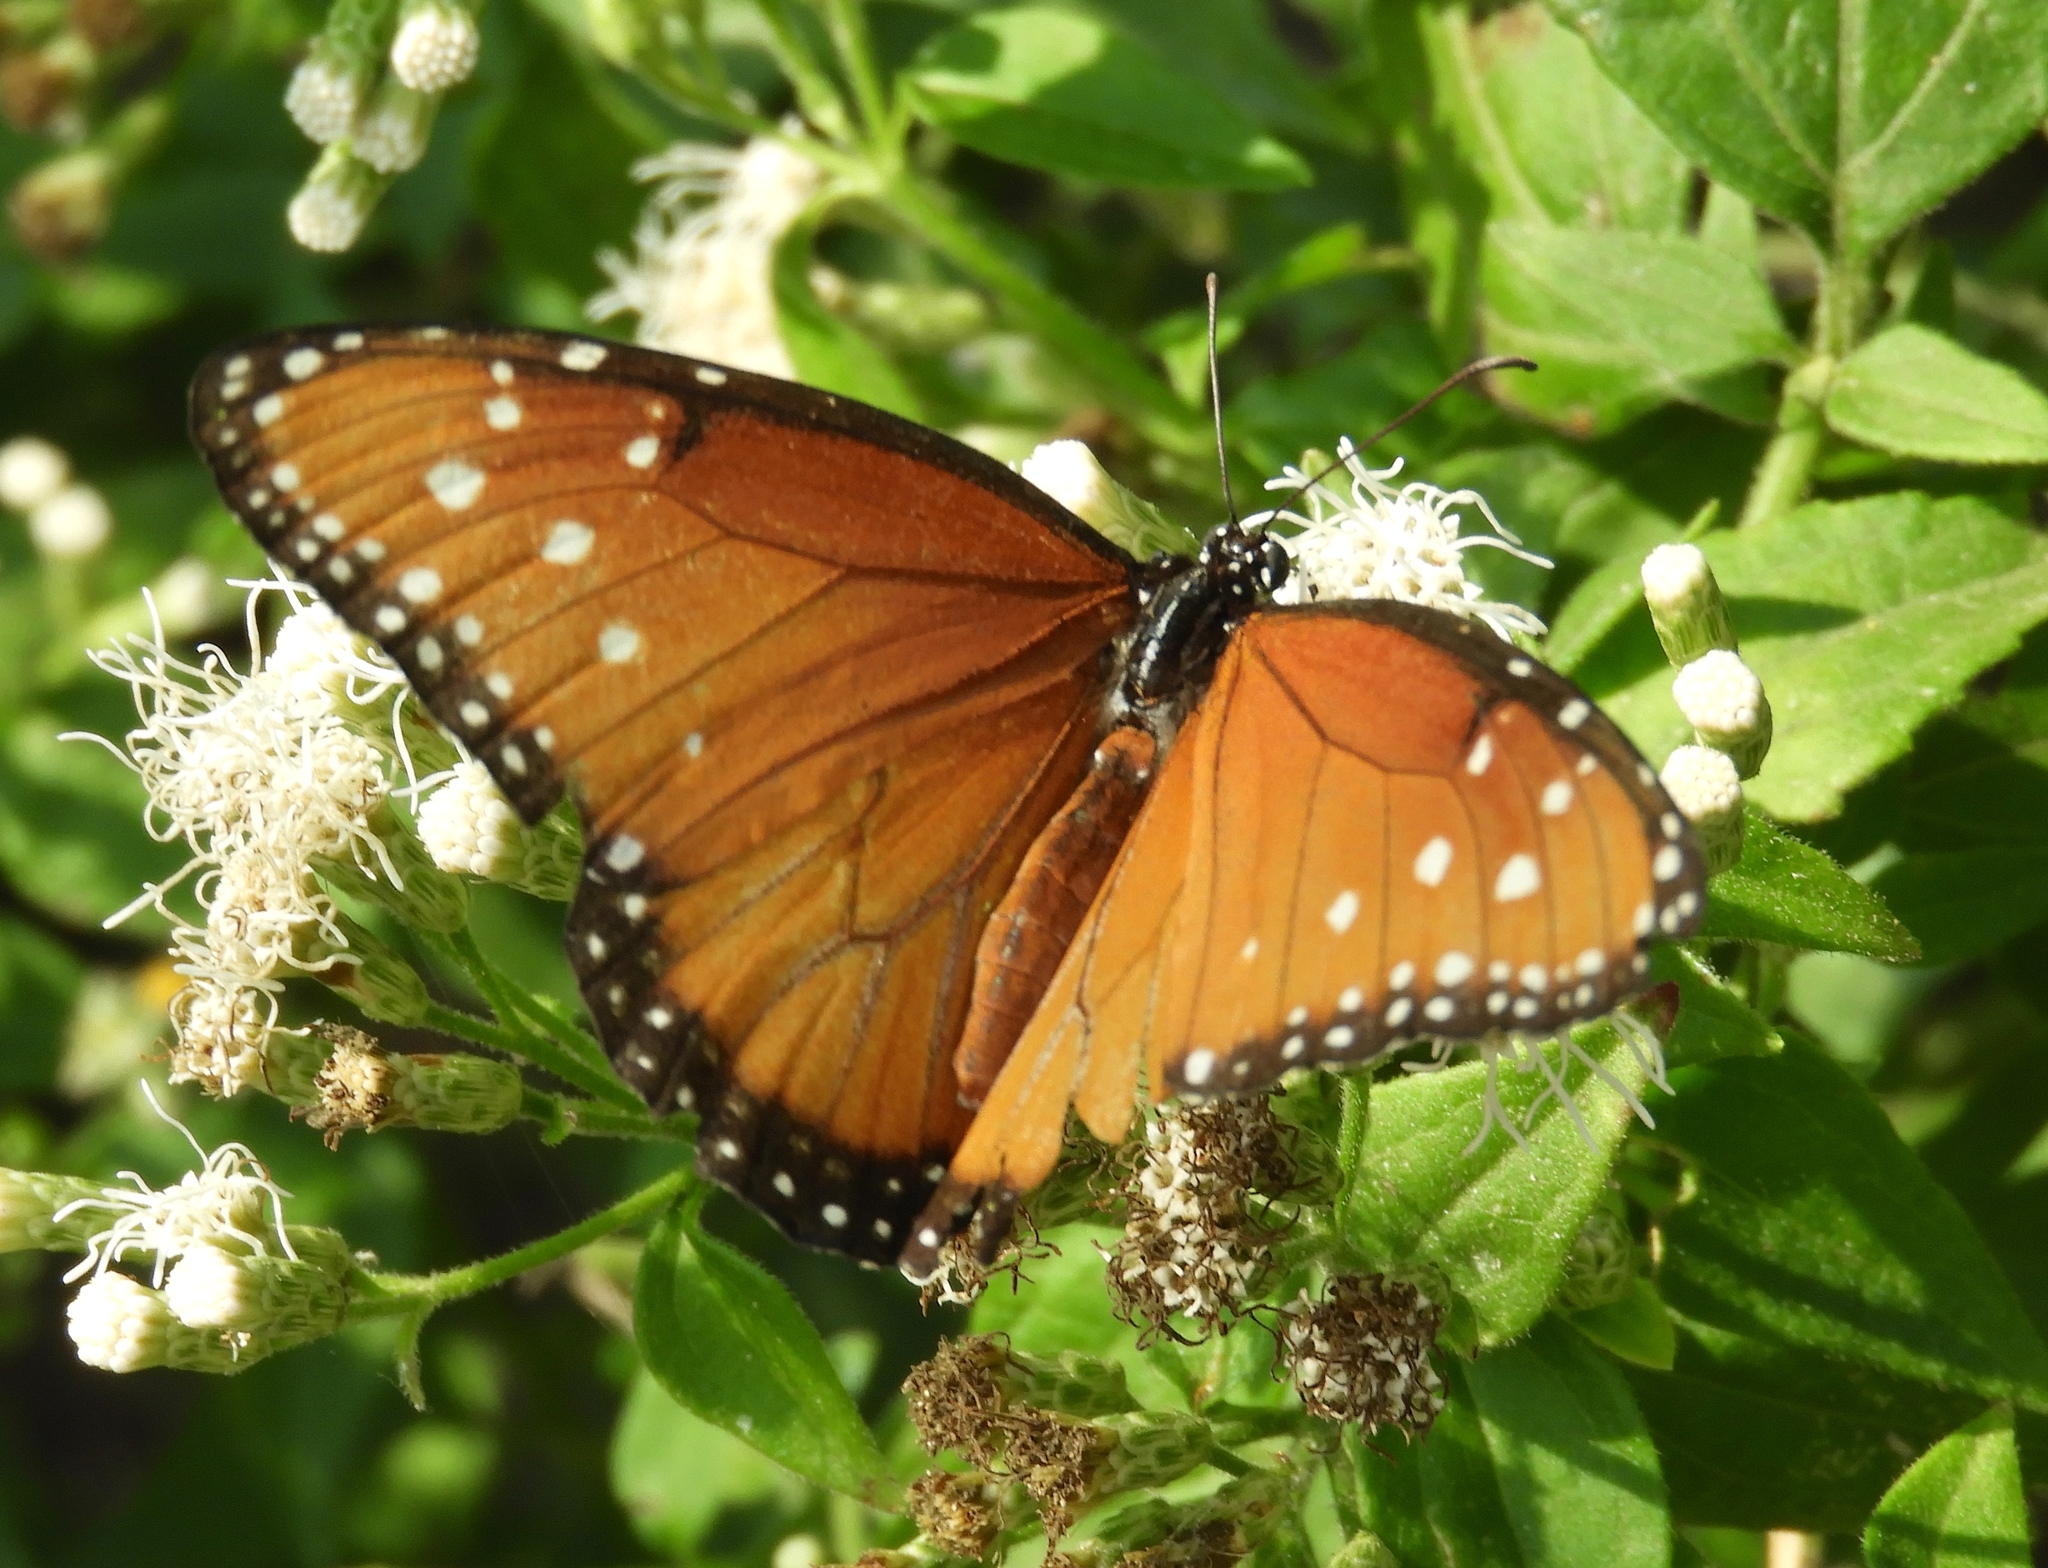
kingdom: Animalia
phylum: Arthropoda
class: Insecta
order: Lepidoptera
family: Nymphalidae
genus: Danaus
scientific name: Danaus gilippus
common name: Queen
